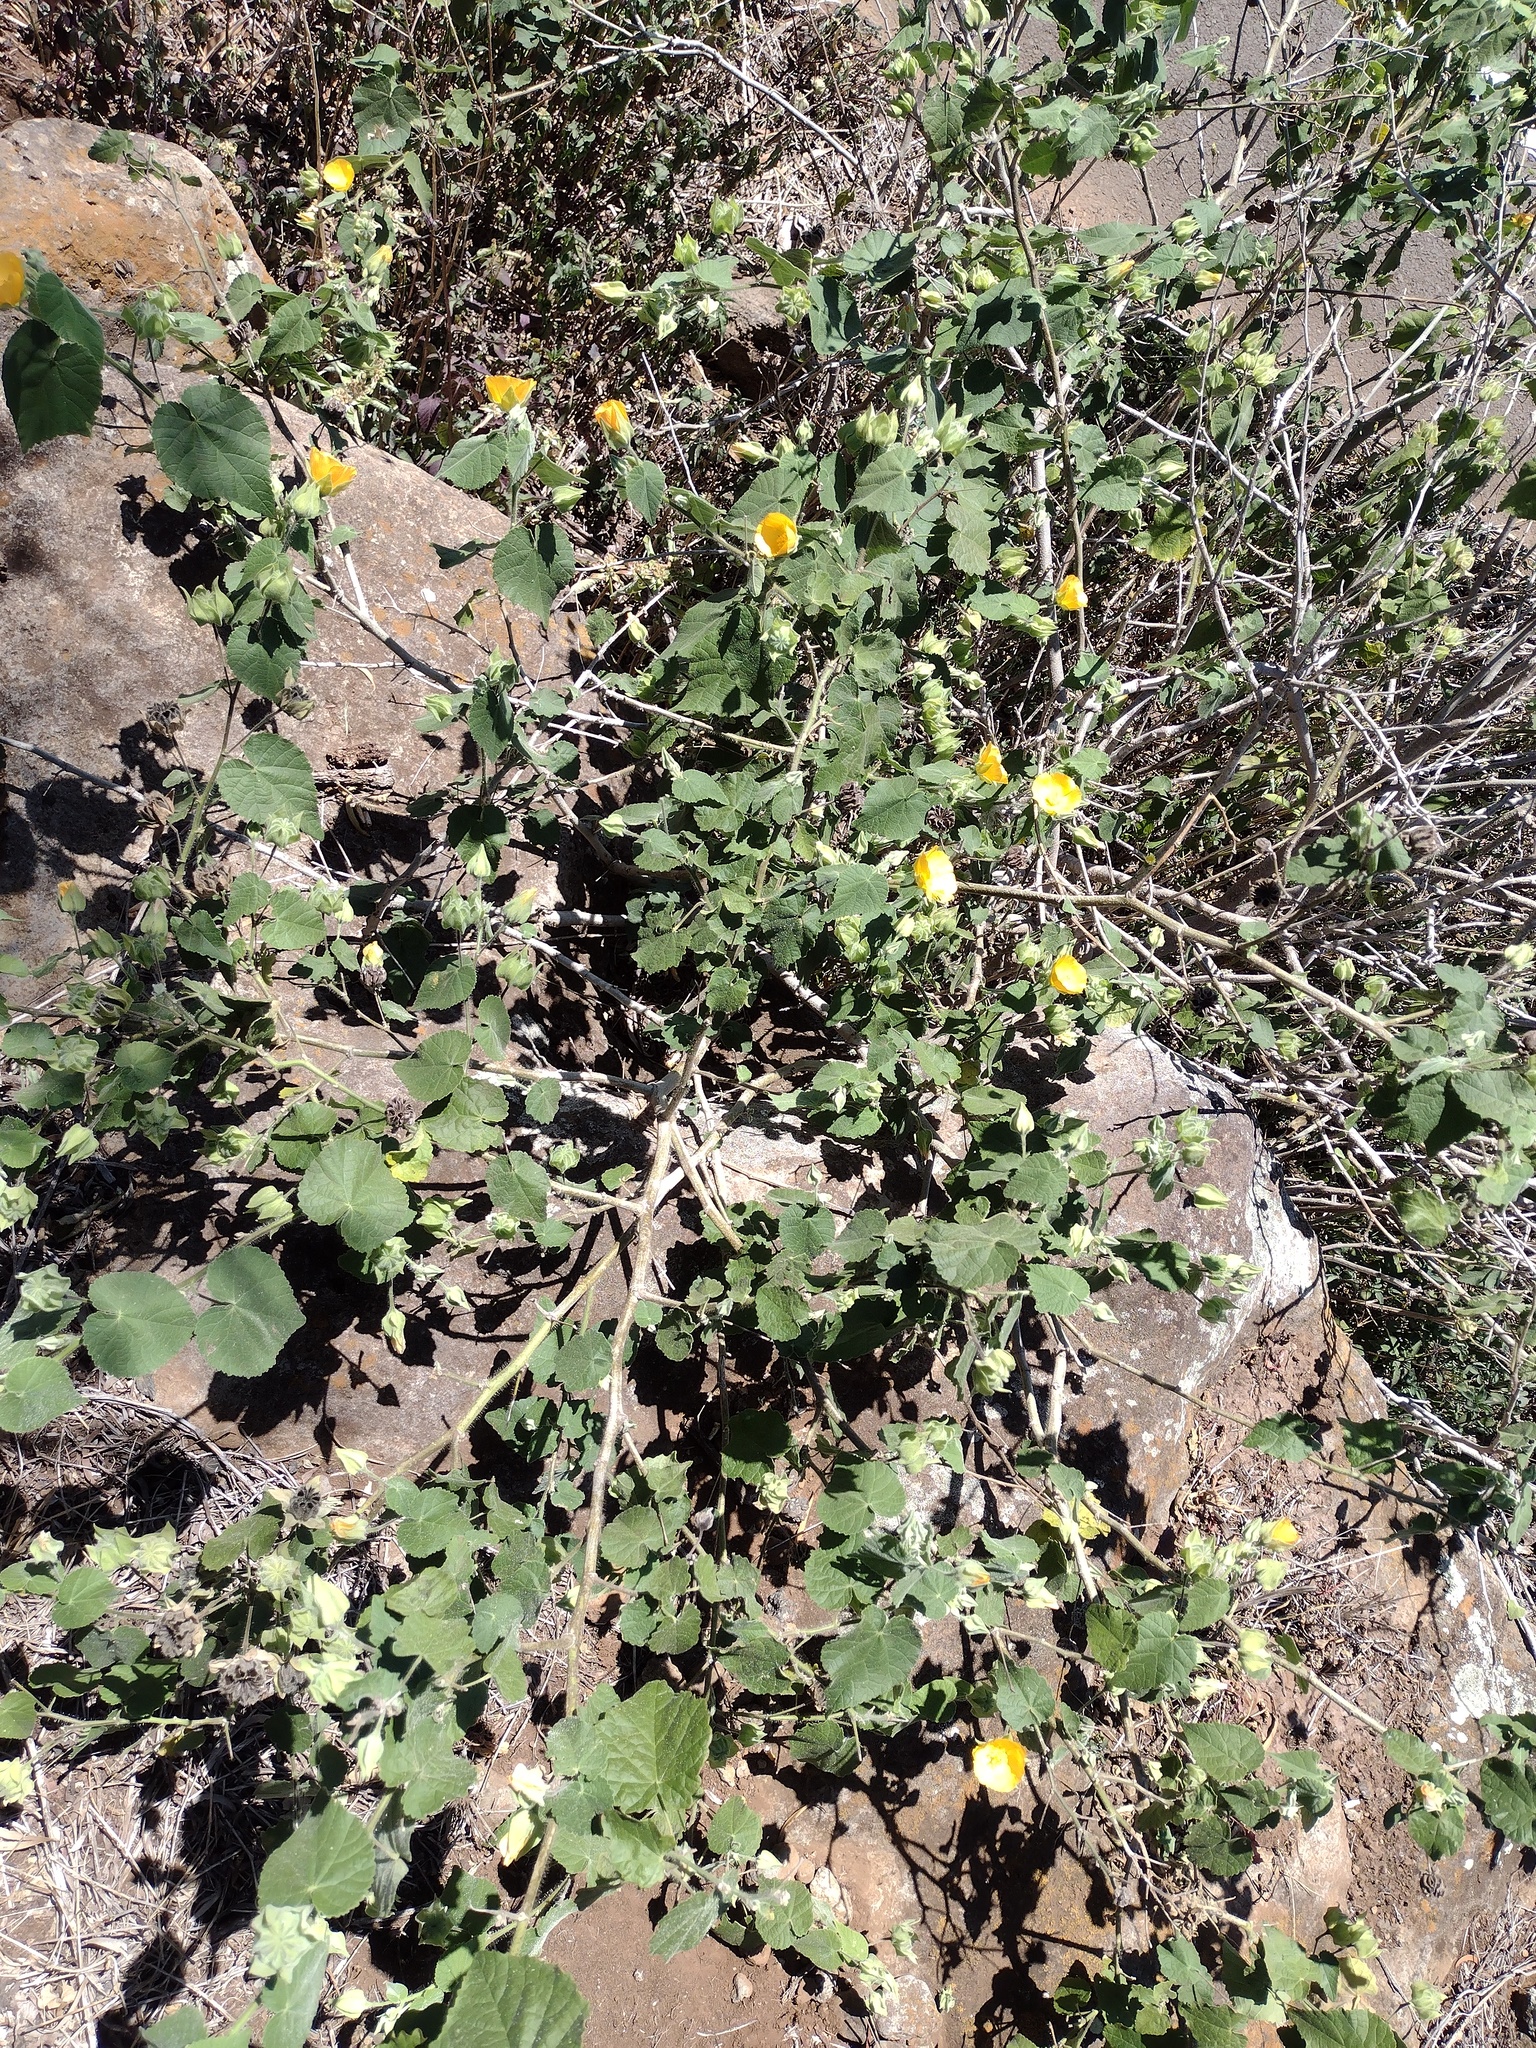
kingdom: Plantae
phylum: Tracheophyta
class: Magnoliopsida
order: Malvales
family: Malvaceae
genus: Abutilon
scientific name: Abutilon grandifolium
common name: Hairy abutilon
